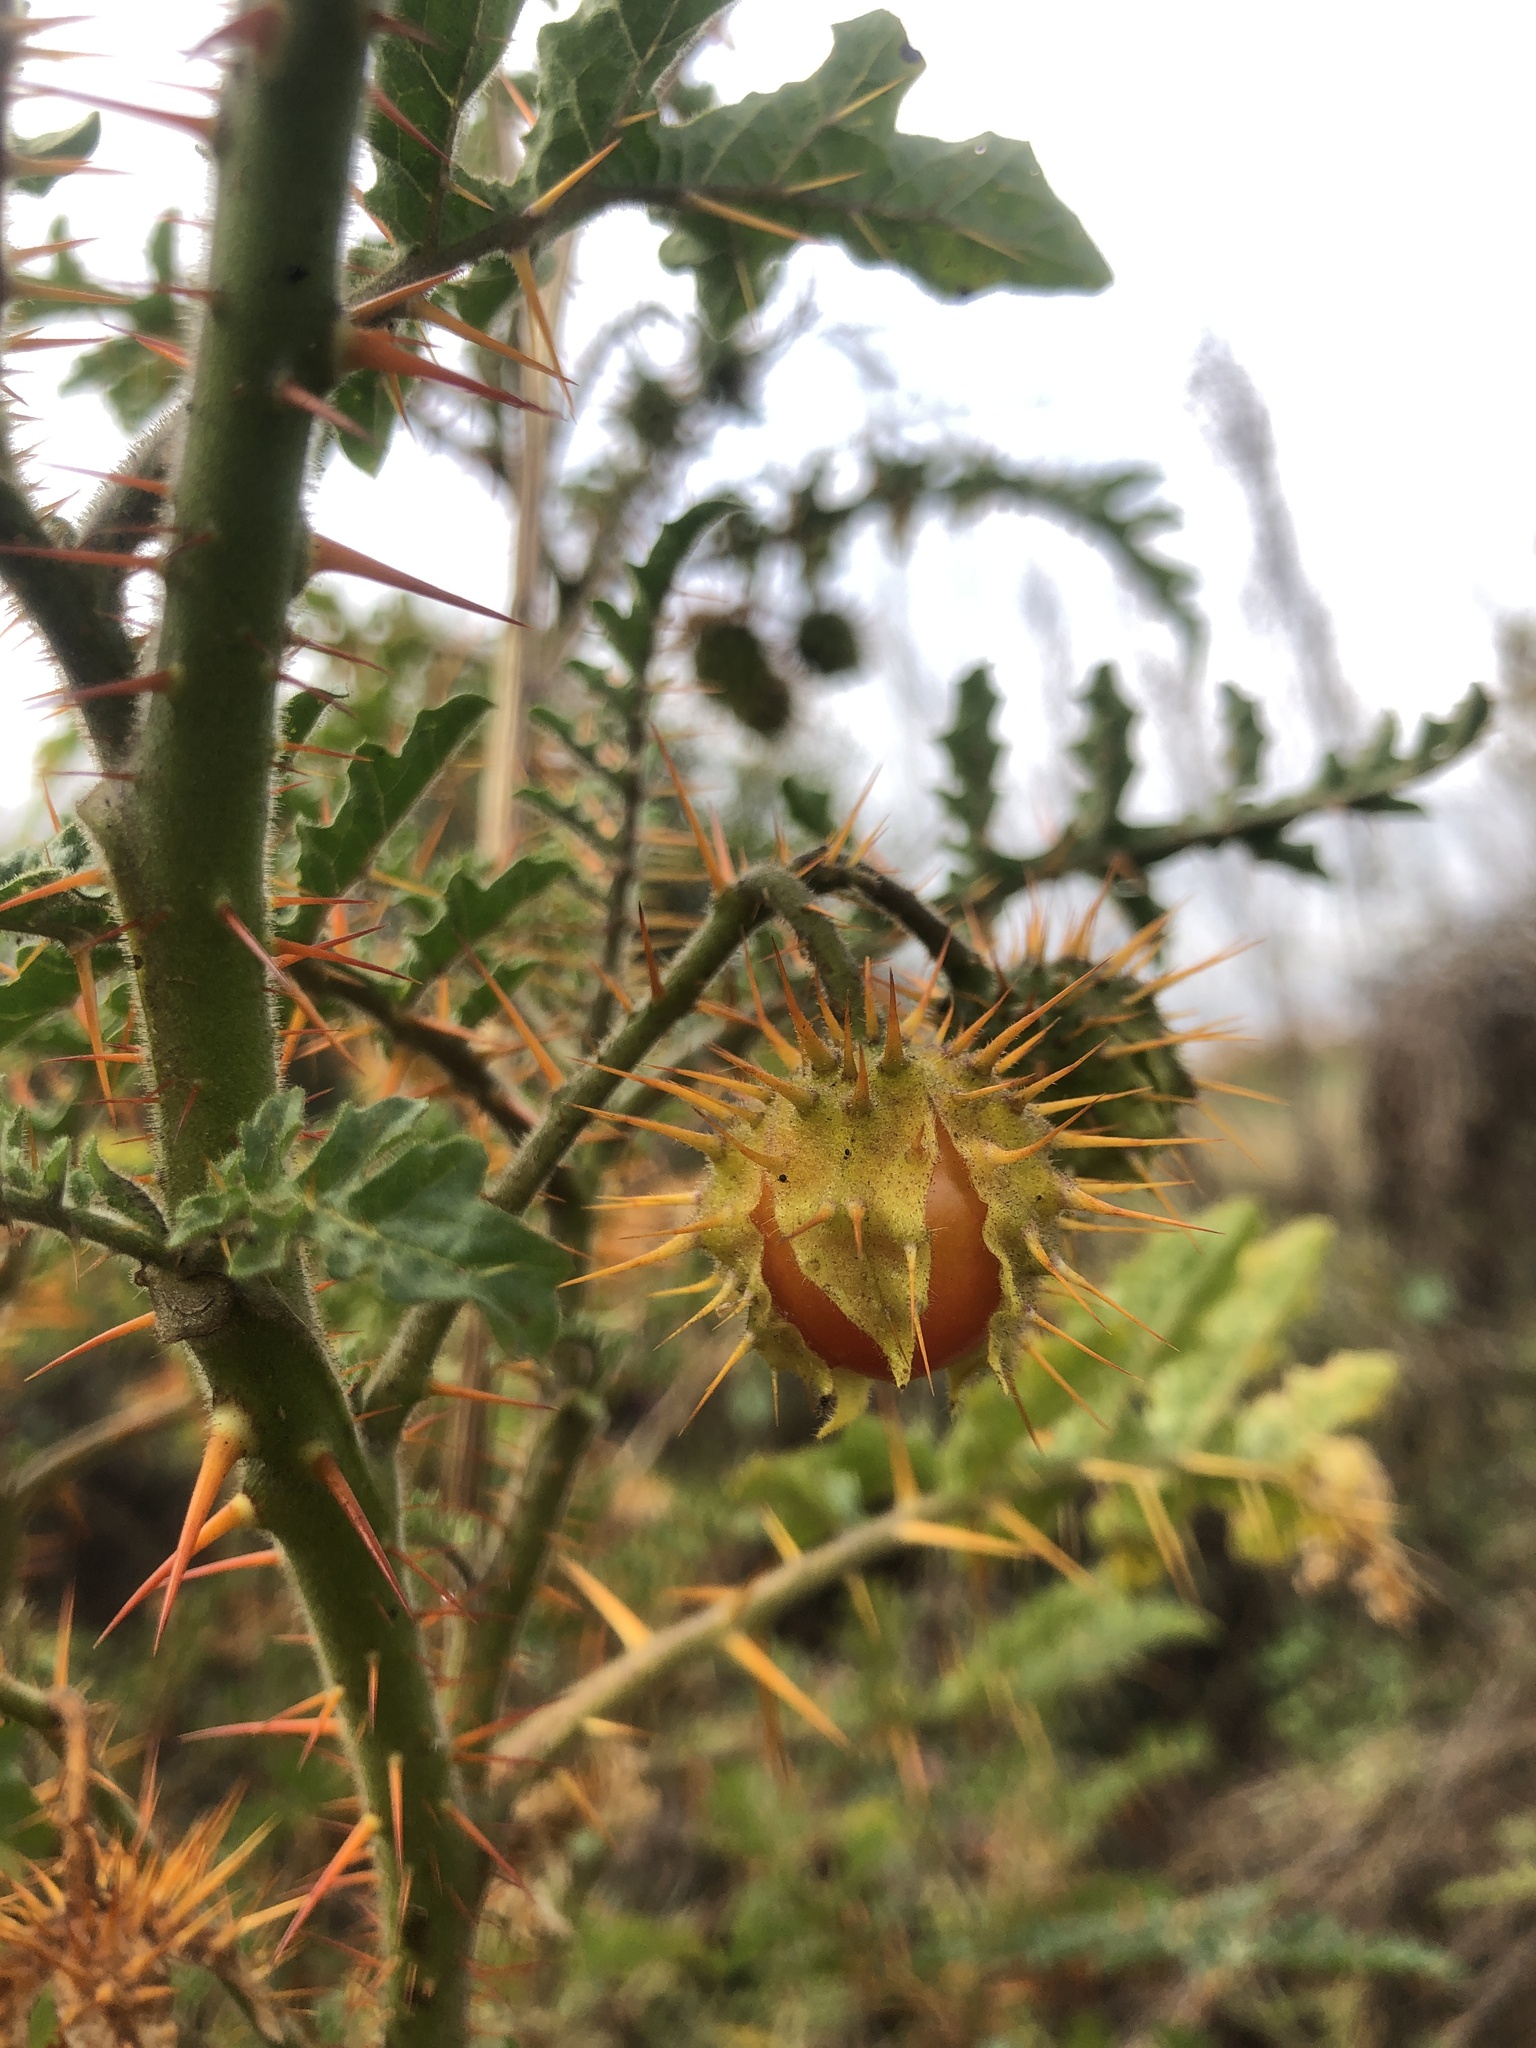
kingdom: Plantae
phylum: Tracheophyta
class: Magnoliopsida
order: Solanales
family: Solanaceae
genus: Solanum
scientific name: Solanum sisymbriifolium
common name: Red buffalo-bur
